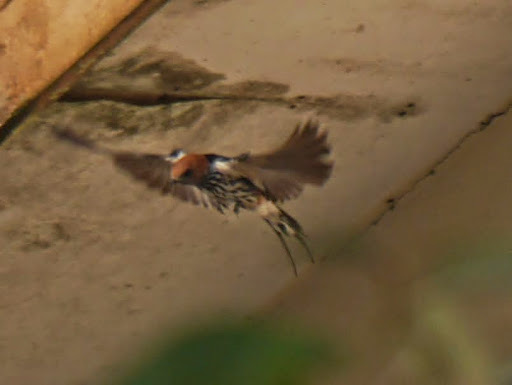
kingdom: Animalia
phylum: Chordata
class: Aves
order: Passeriformes
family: Hirundinidae
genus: Cecropis
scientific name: Cecropis abyssinica
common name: Lesser striped-swallow
